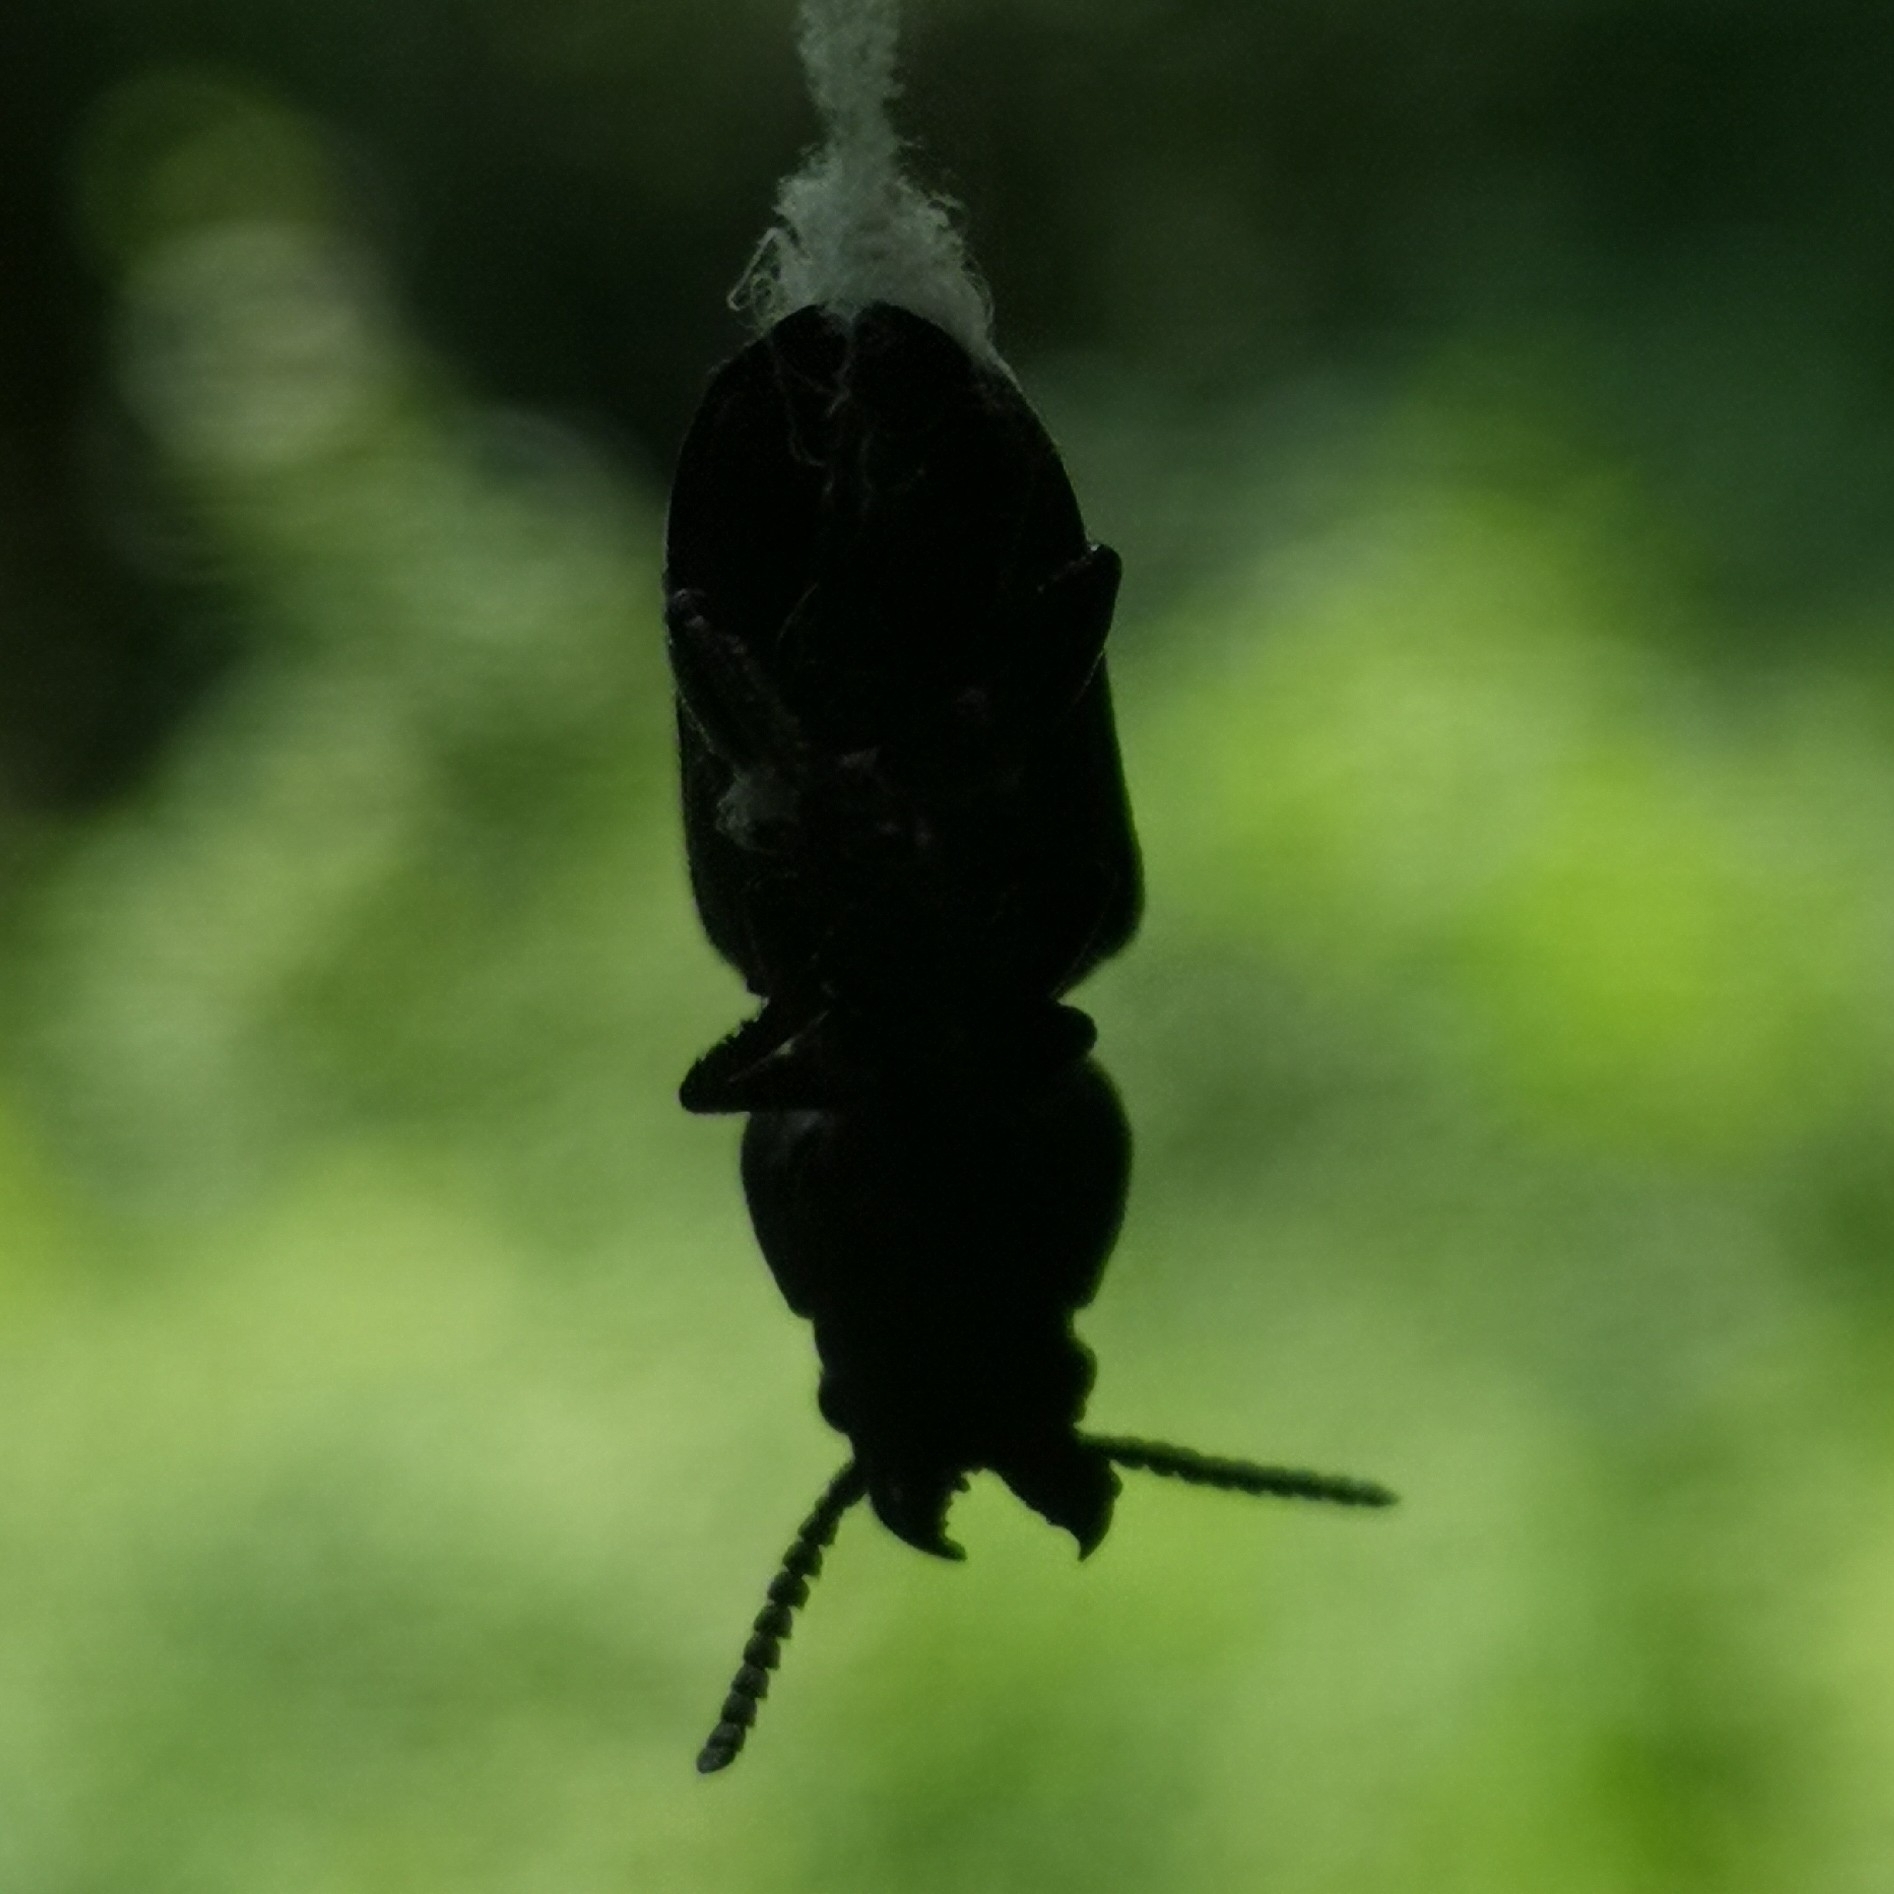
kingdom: Animalia
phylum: Arthropoda
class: Insecta
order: Coleoptera
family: Cerambycidae
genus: Spondylis
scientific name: Spondylis buprestoides
